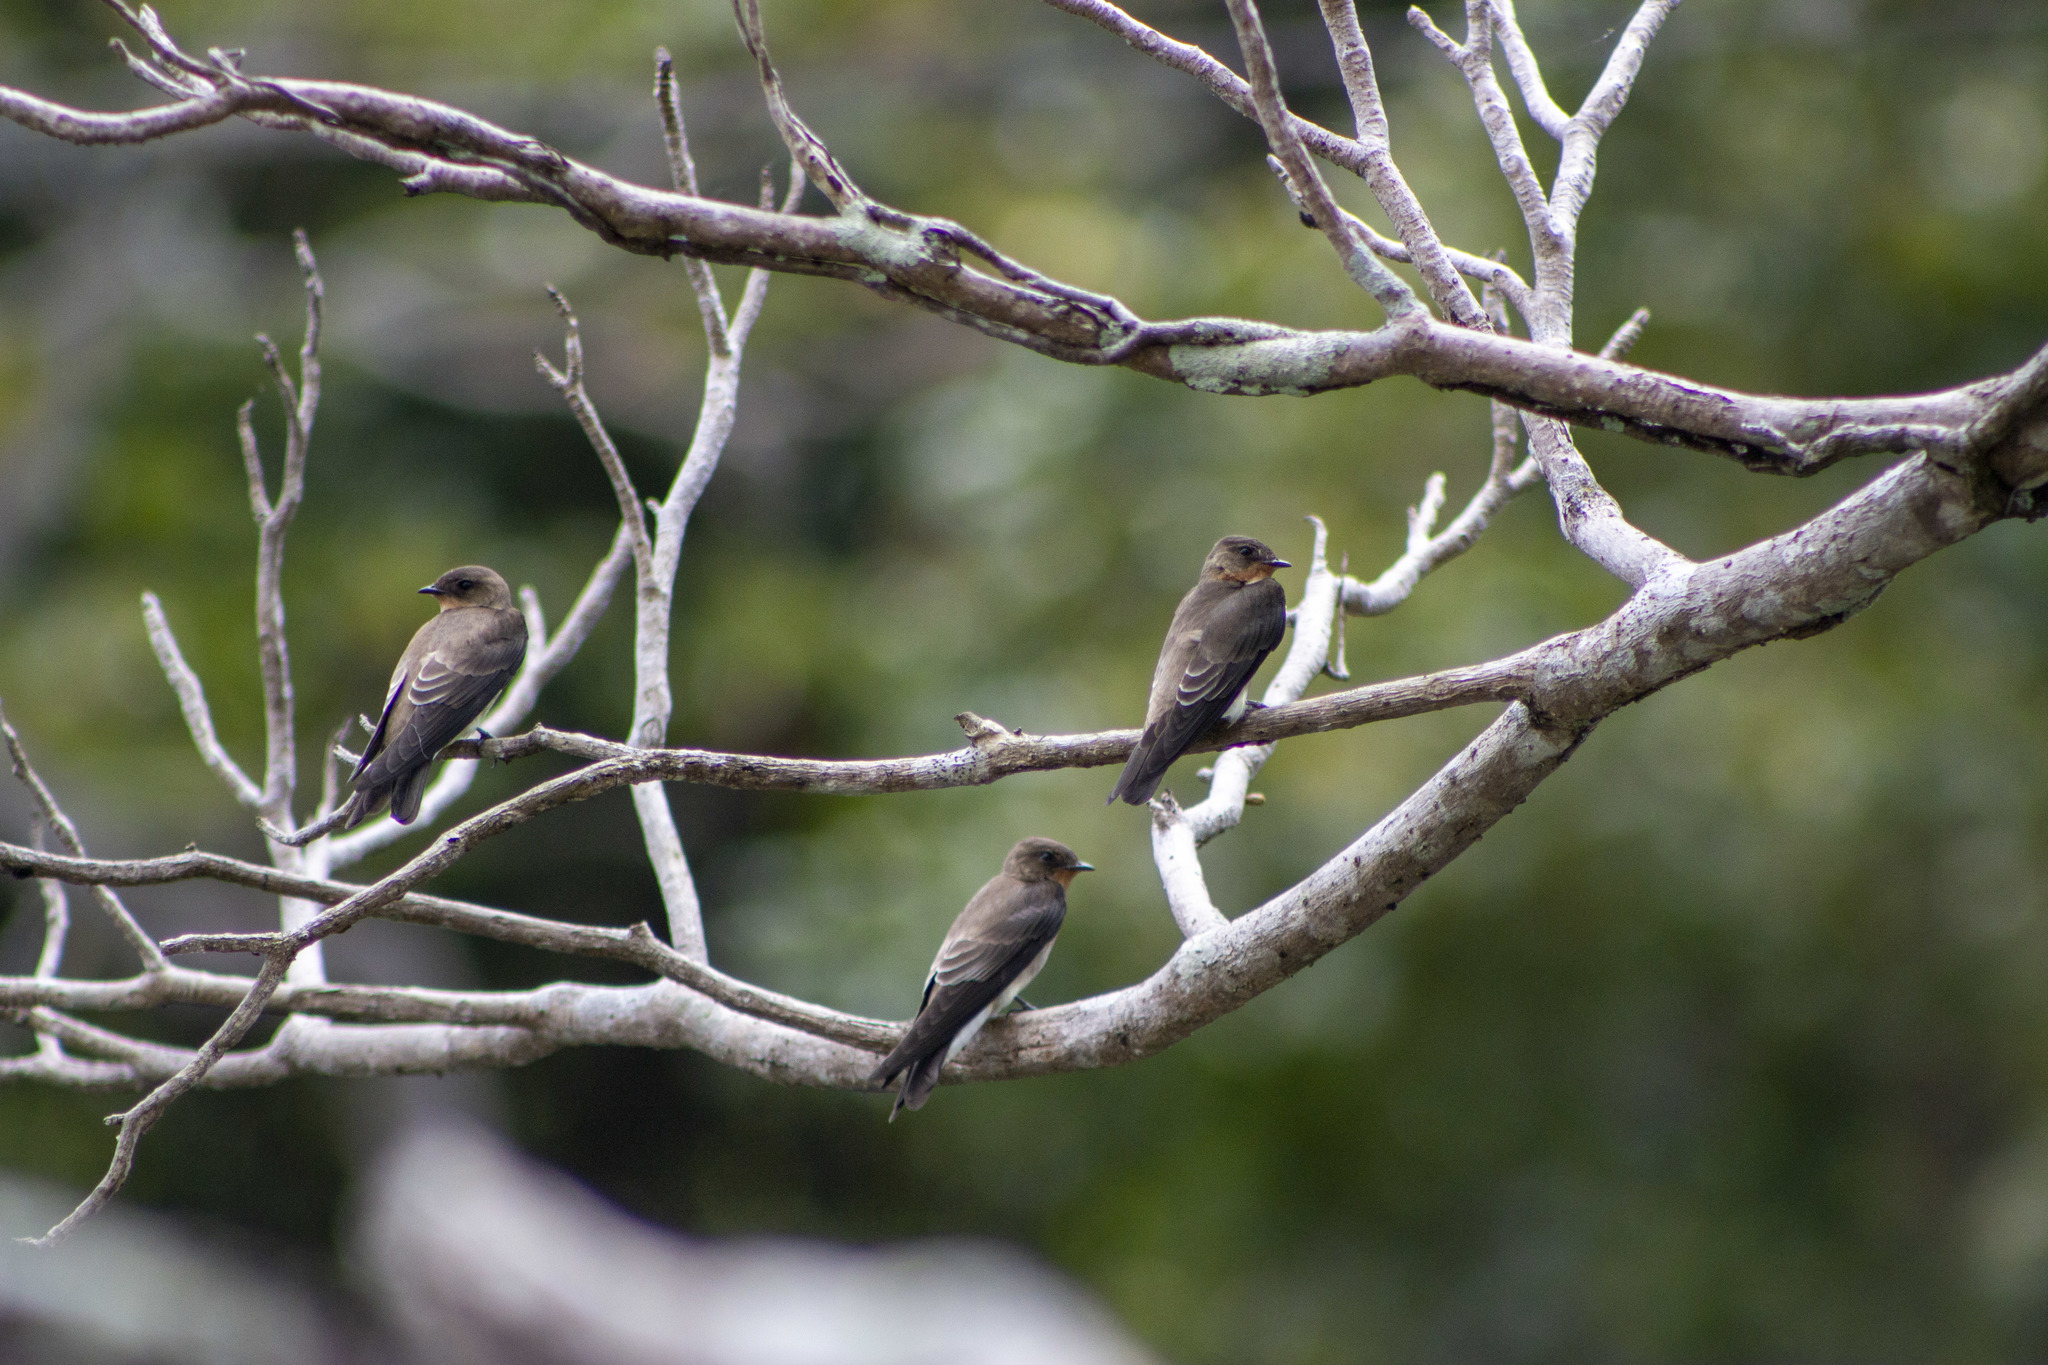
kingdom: Animalia
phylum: Chordata
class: Aves
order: Passeriformes
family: Hirundinidae
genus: Stelgidopteryx
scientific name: Stelgidopteryx ruficollis
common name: Southern rough-winged swallow
